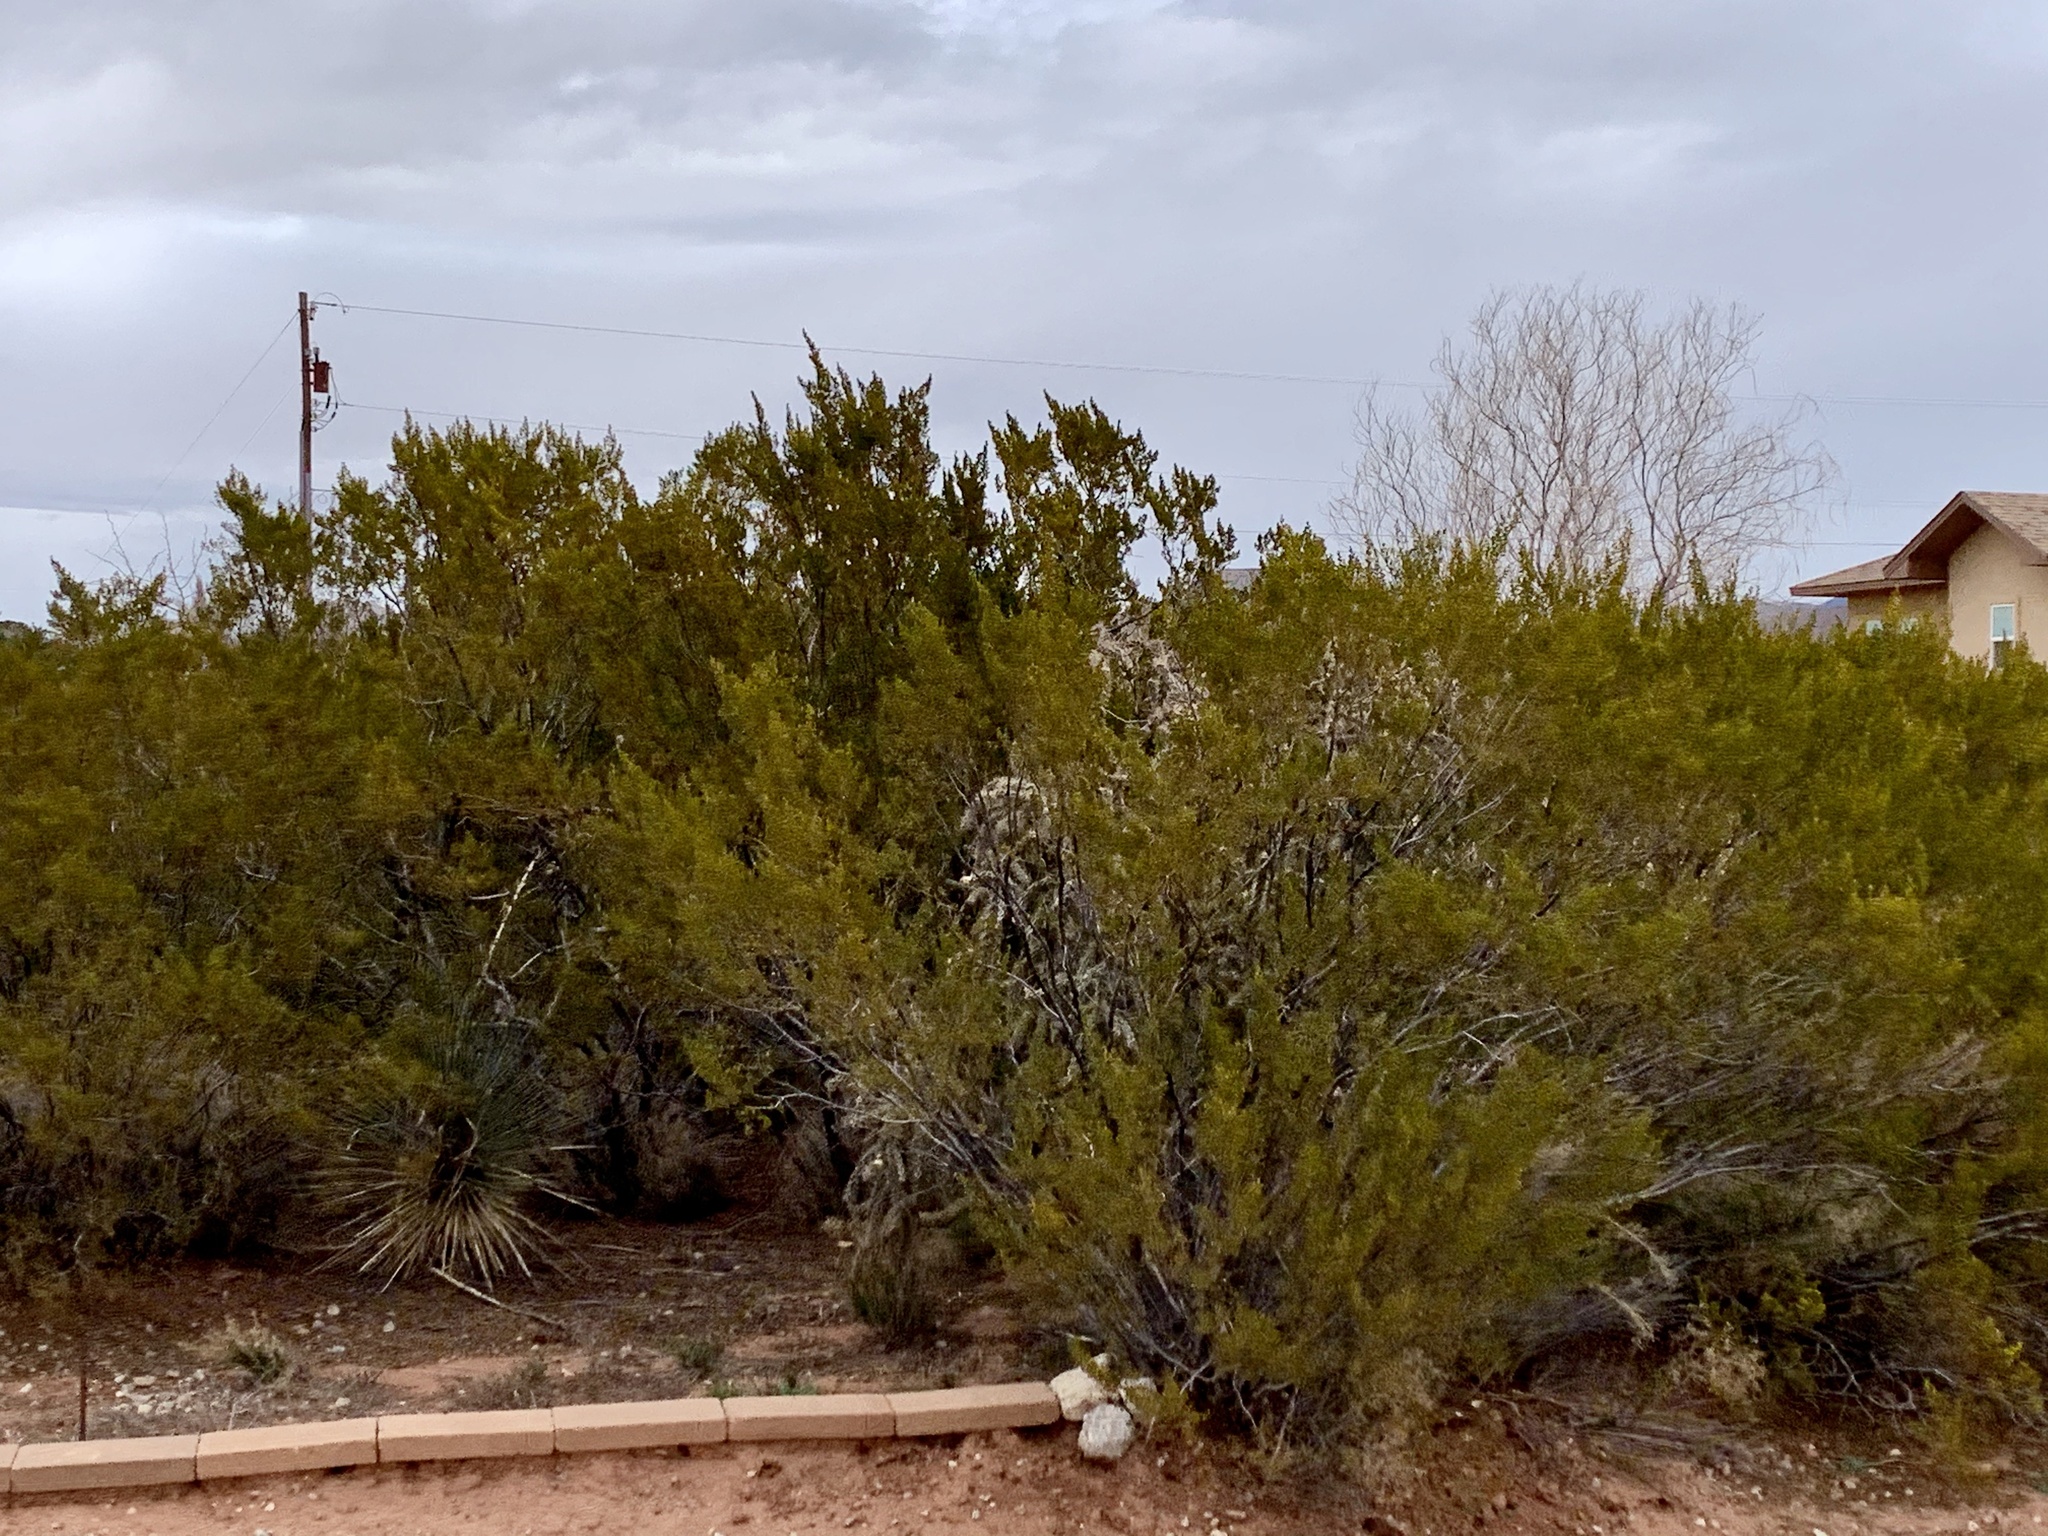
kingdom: Plantae
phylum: Tracheophyta
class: Magnoliopsida
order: Zygophyllales
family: Zygophyllaceae
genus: Larrea
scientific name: Larrea tridentata
